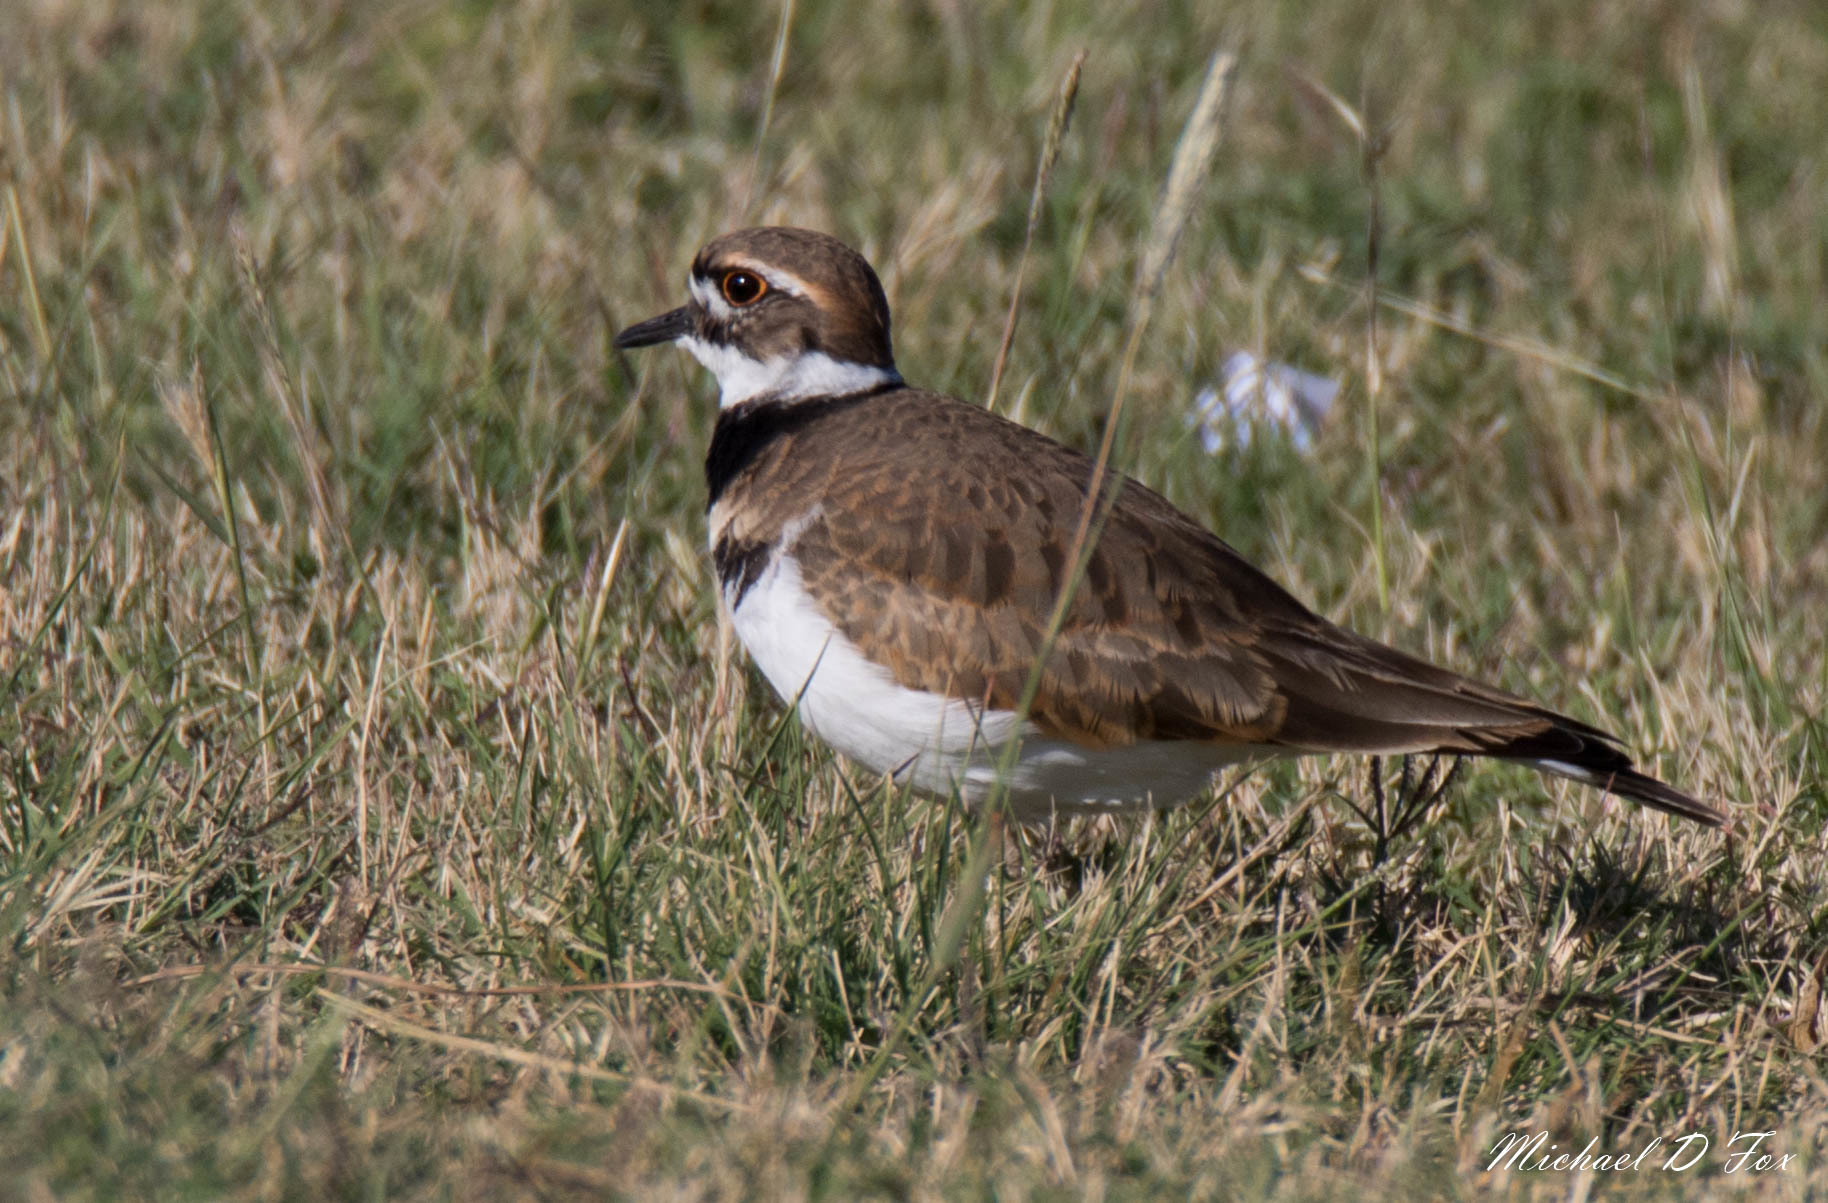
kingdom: Animalia
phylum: Chordata
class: Aves
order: Charadriiformes
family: Charadriidae
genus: Charadrius
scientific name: Charadrius vociferus
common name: Killdeer
